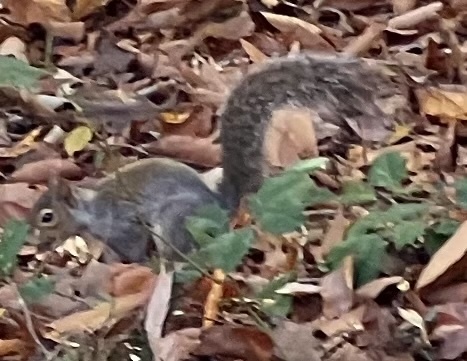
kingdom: Animalia
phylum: Chordata
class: Mammalia
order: Rodentia
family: Sciuridae
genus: Sciurus
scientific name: Sciurus carolinensis
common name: Eastern gray squirrel
